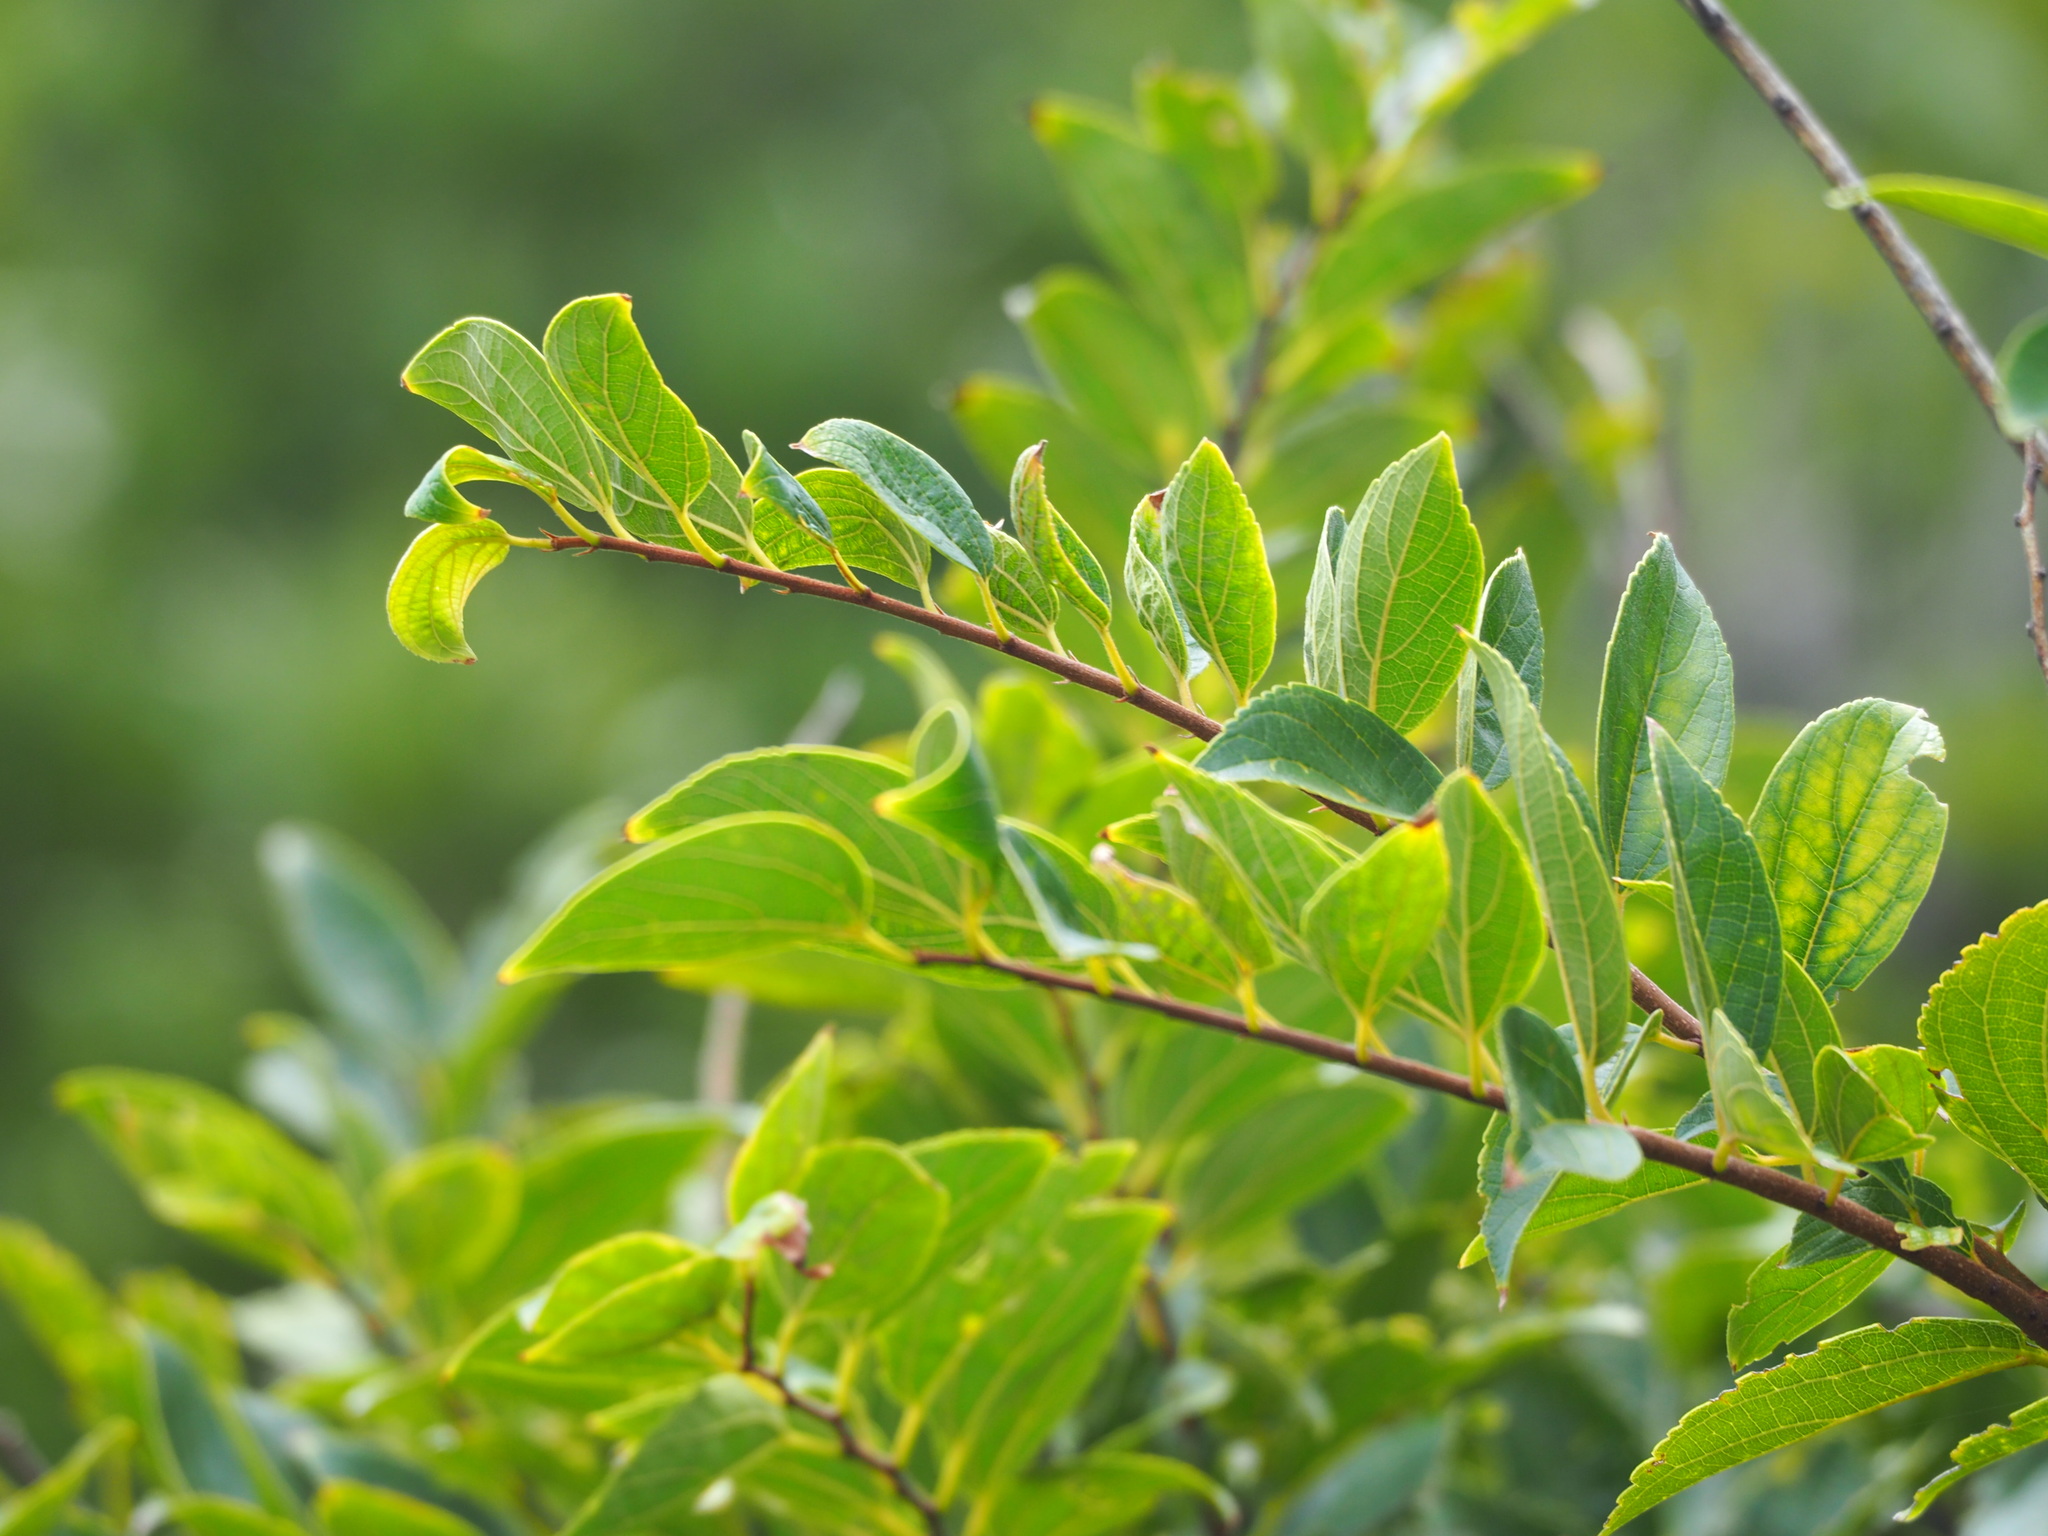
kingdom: Plantae
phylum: Tracheophyta
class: Magnoliopsida
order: Rosales
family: Cannabaceae
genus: Celtis
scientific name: Celtis sinensis
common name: Chinese hackberry
